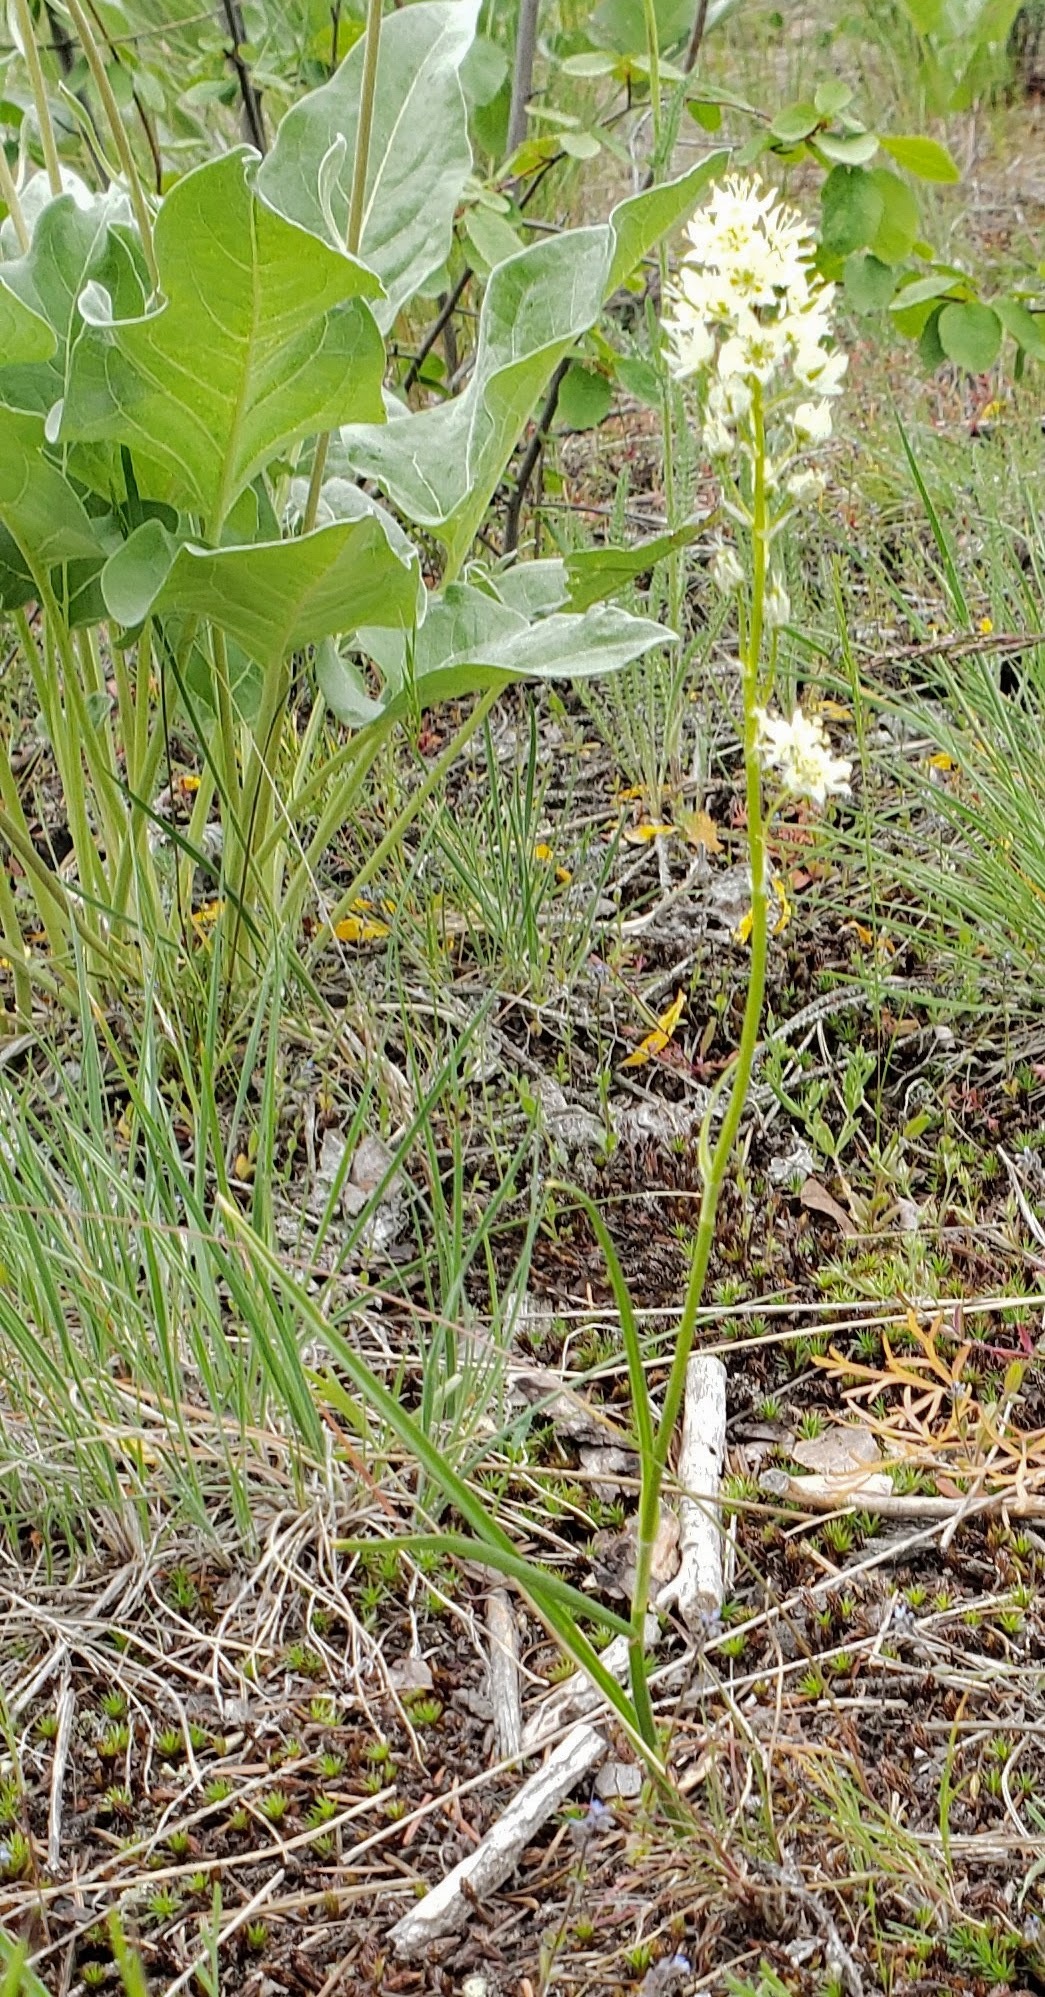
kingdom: Plantae
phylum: Tracheophyta
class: Liliopsida
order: Liliales
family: Melanthiaceae
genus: Toxicoscordion
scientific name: Toxicoscordion venenosum
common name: Meadow death camas
